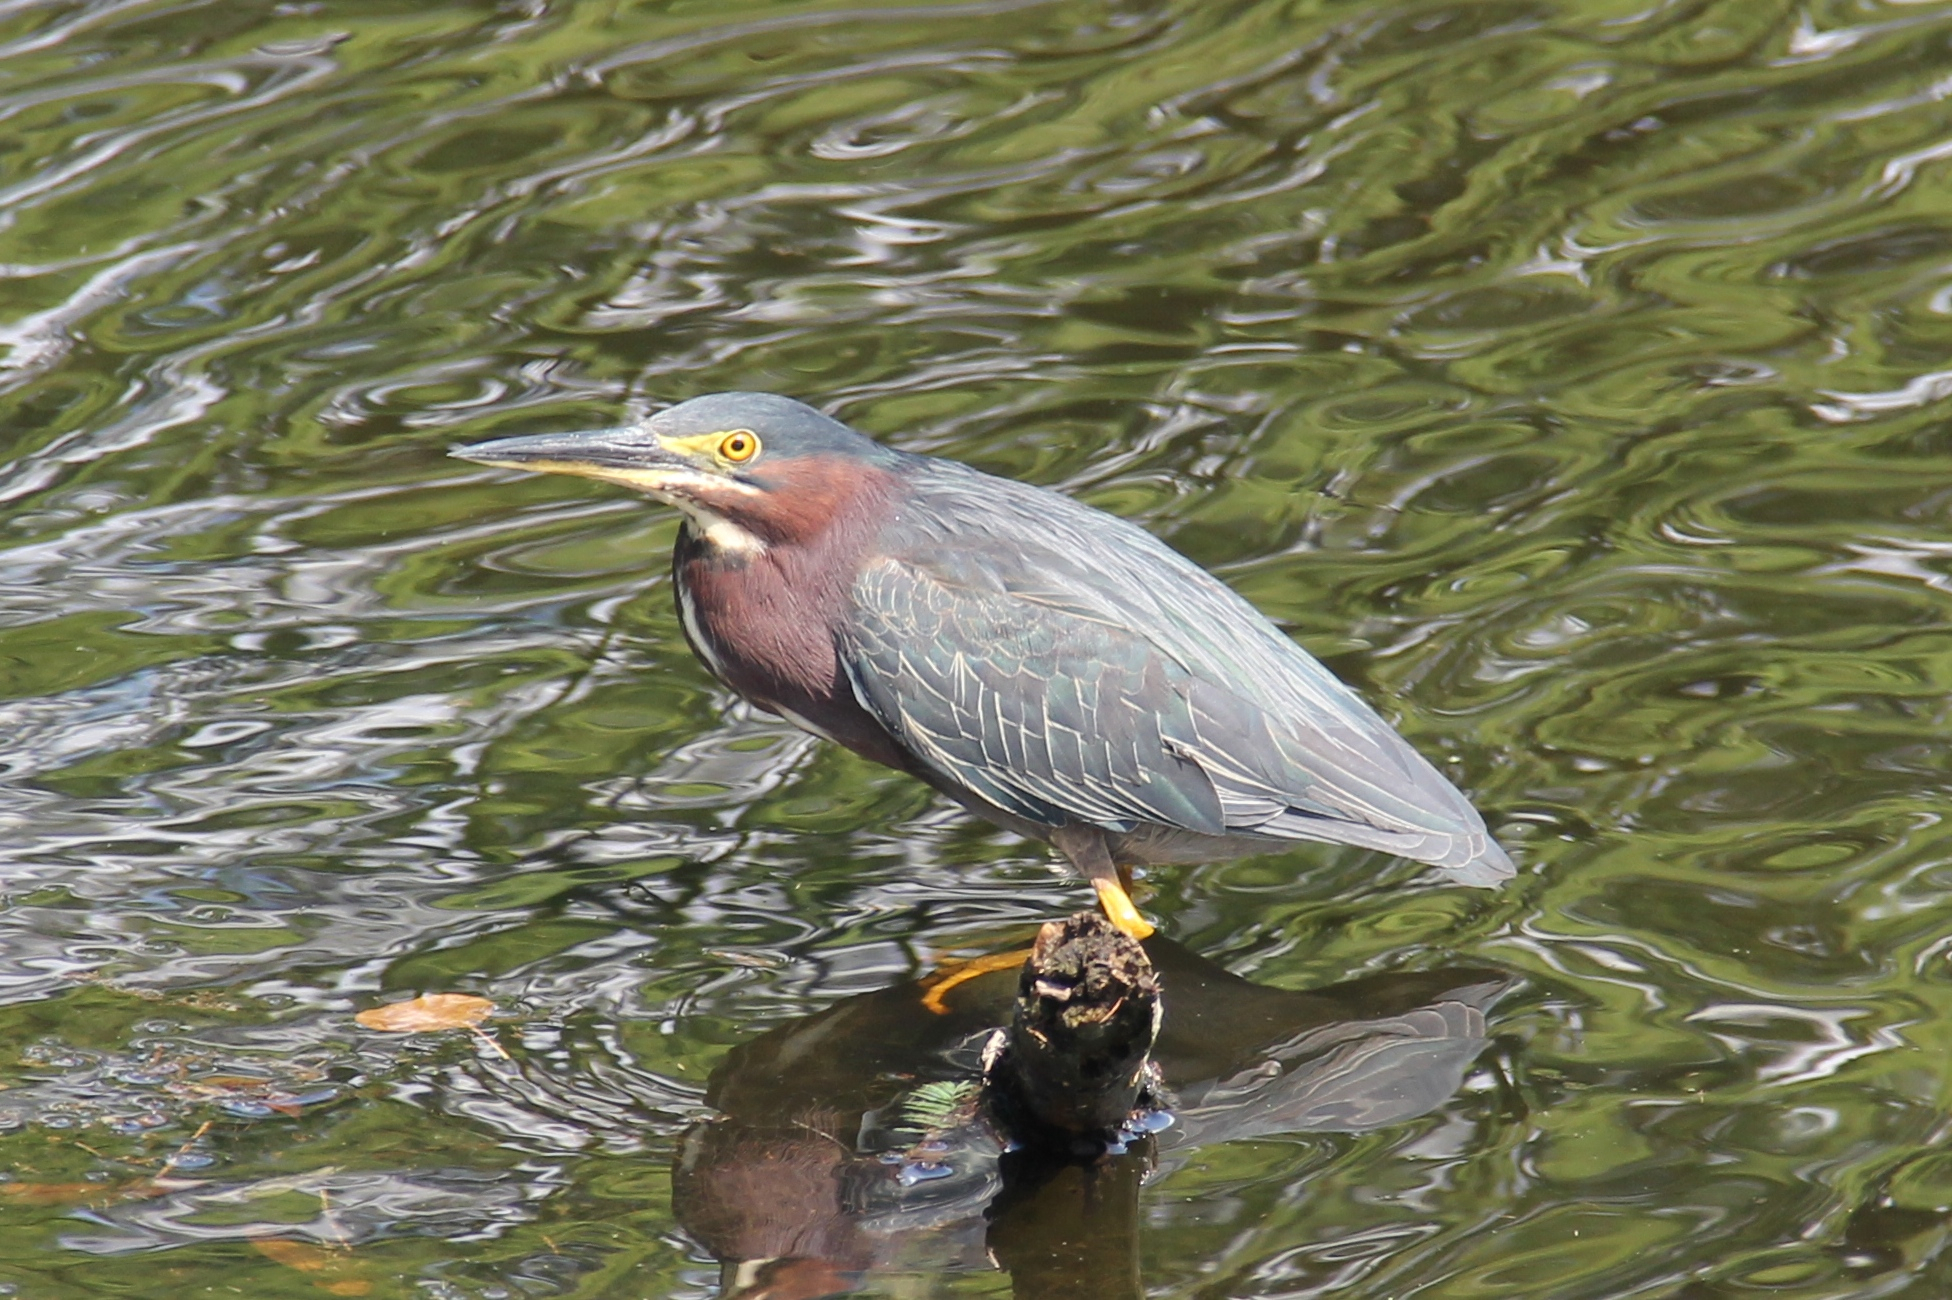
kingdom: Animalia
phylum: Chordata
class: Aves
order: Pelecaniformes
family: Ardeidae
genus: Butorides
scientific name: Butorides virescens
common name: Green heron
